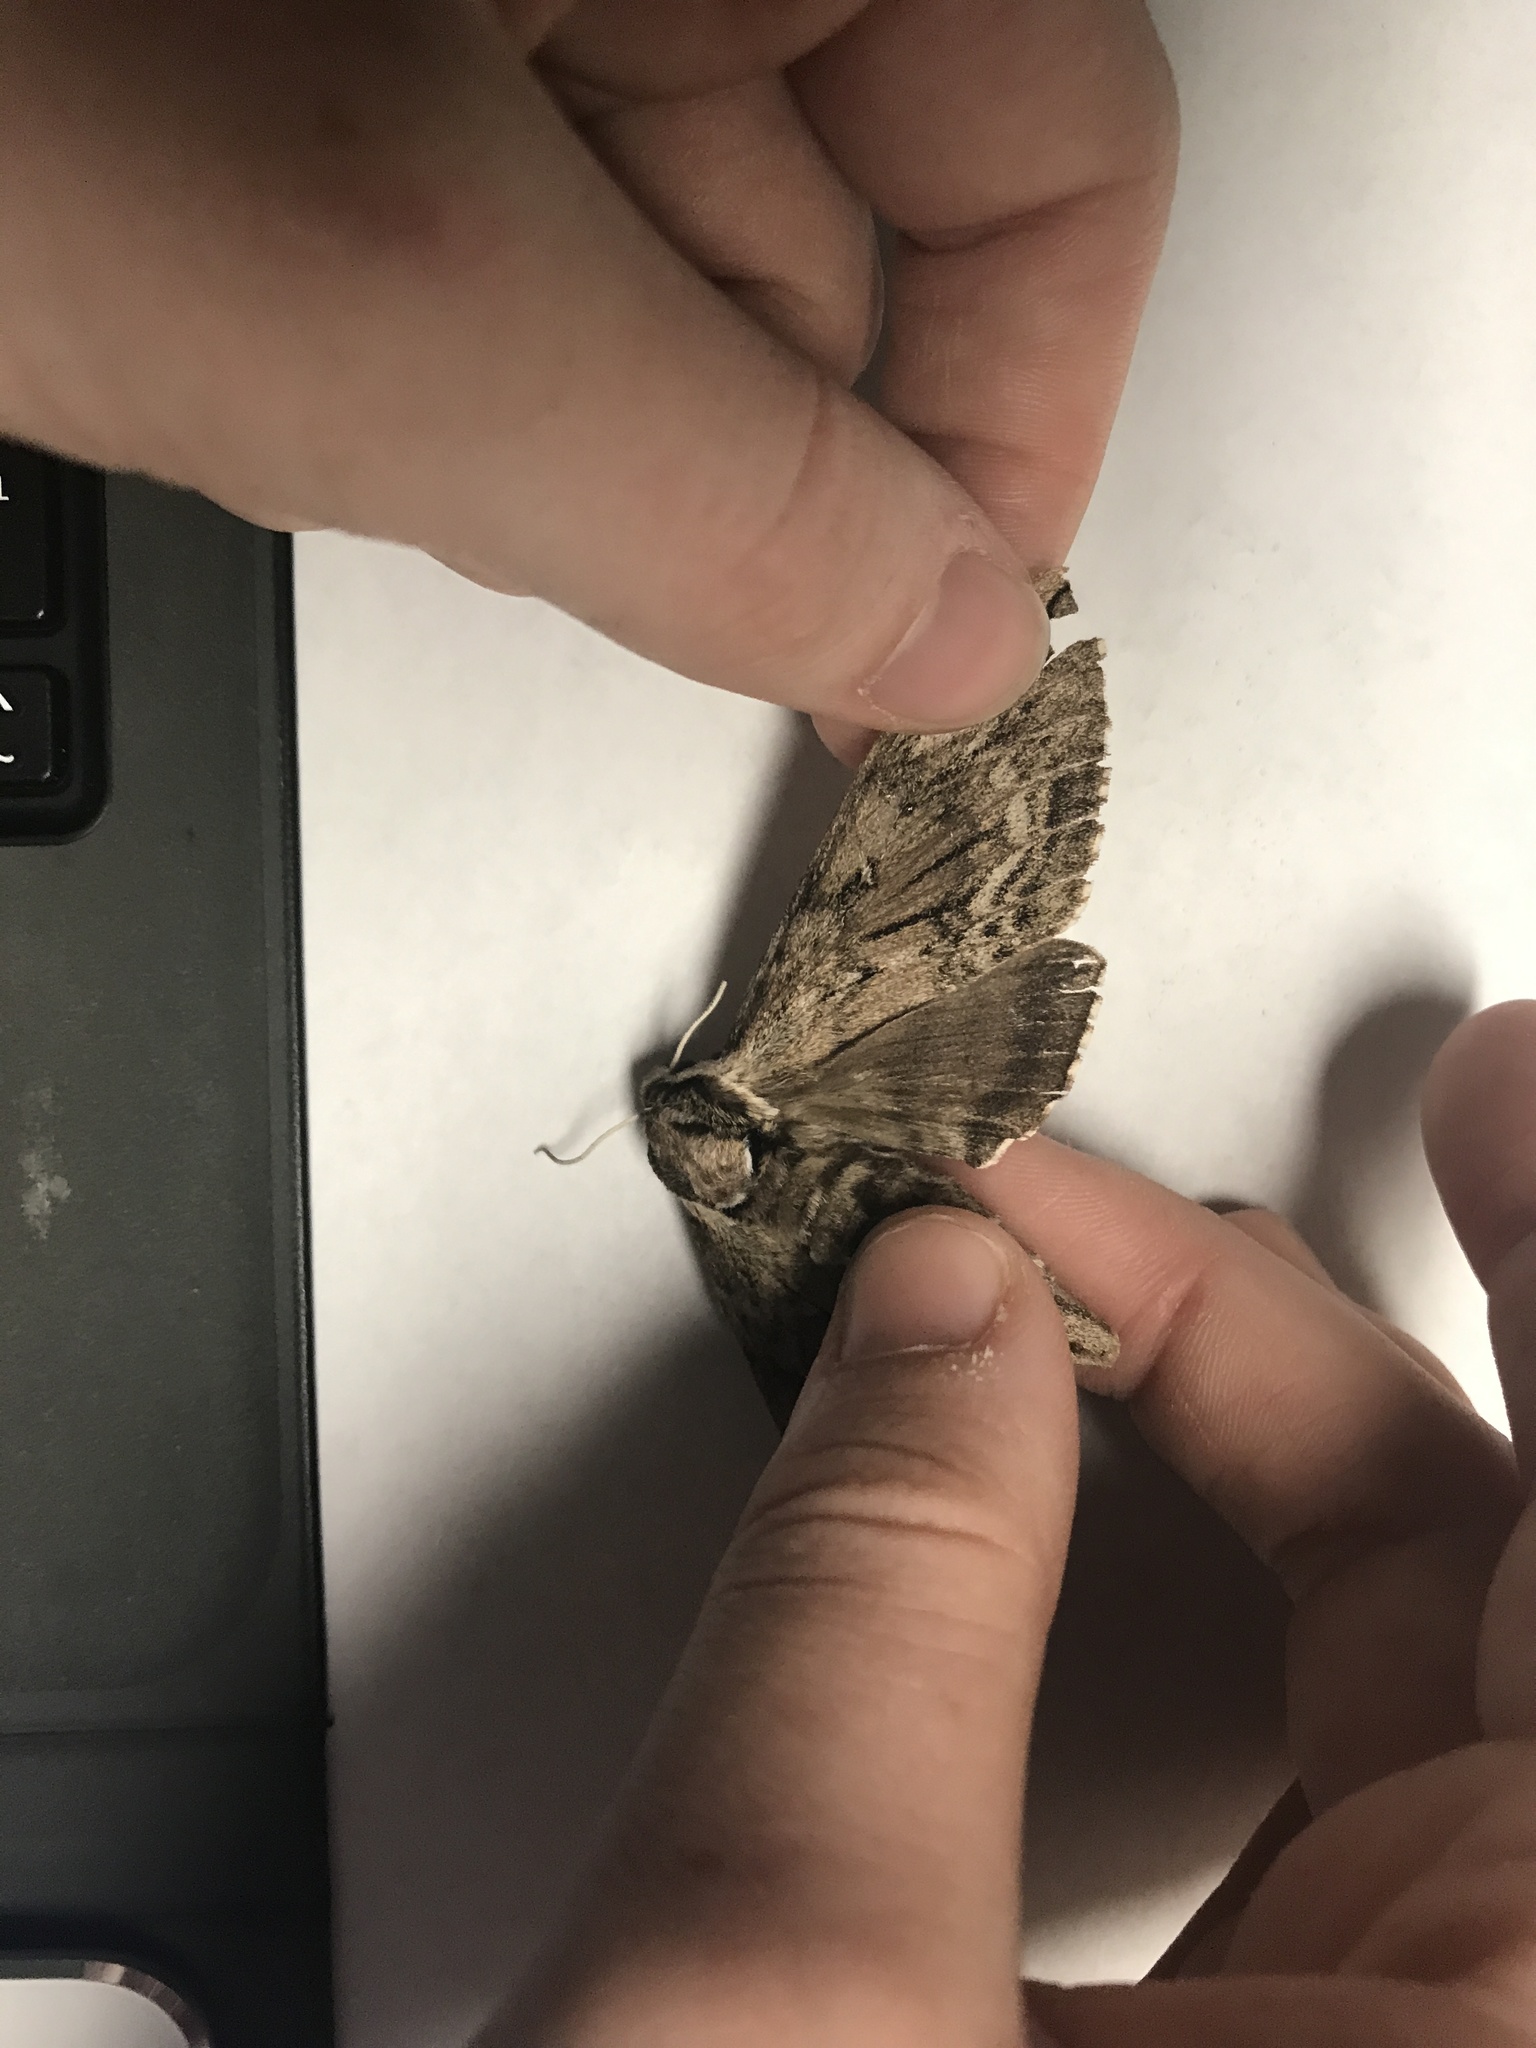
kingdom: Animalia
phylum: Arthropoda
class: Insecta
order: Lepidoptera
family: Sphingidae
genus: Ceratomia
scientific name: Ceratomia catalpae
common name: Catalpa hornworm
